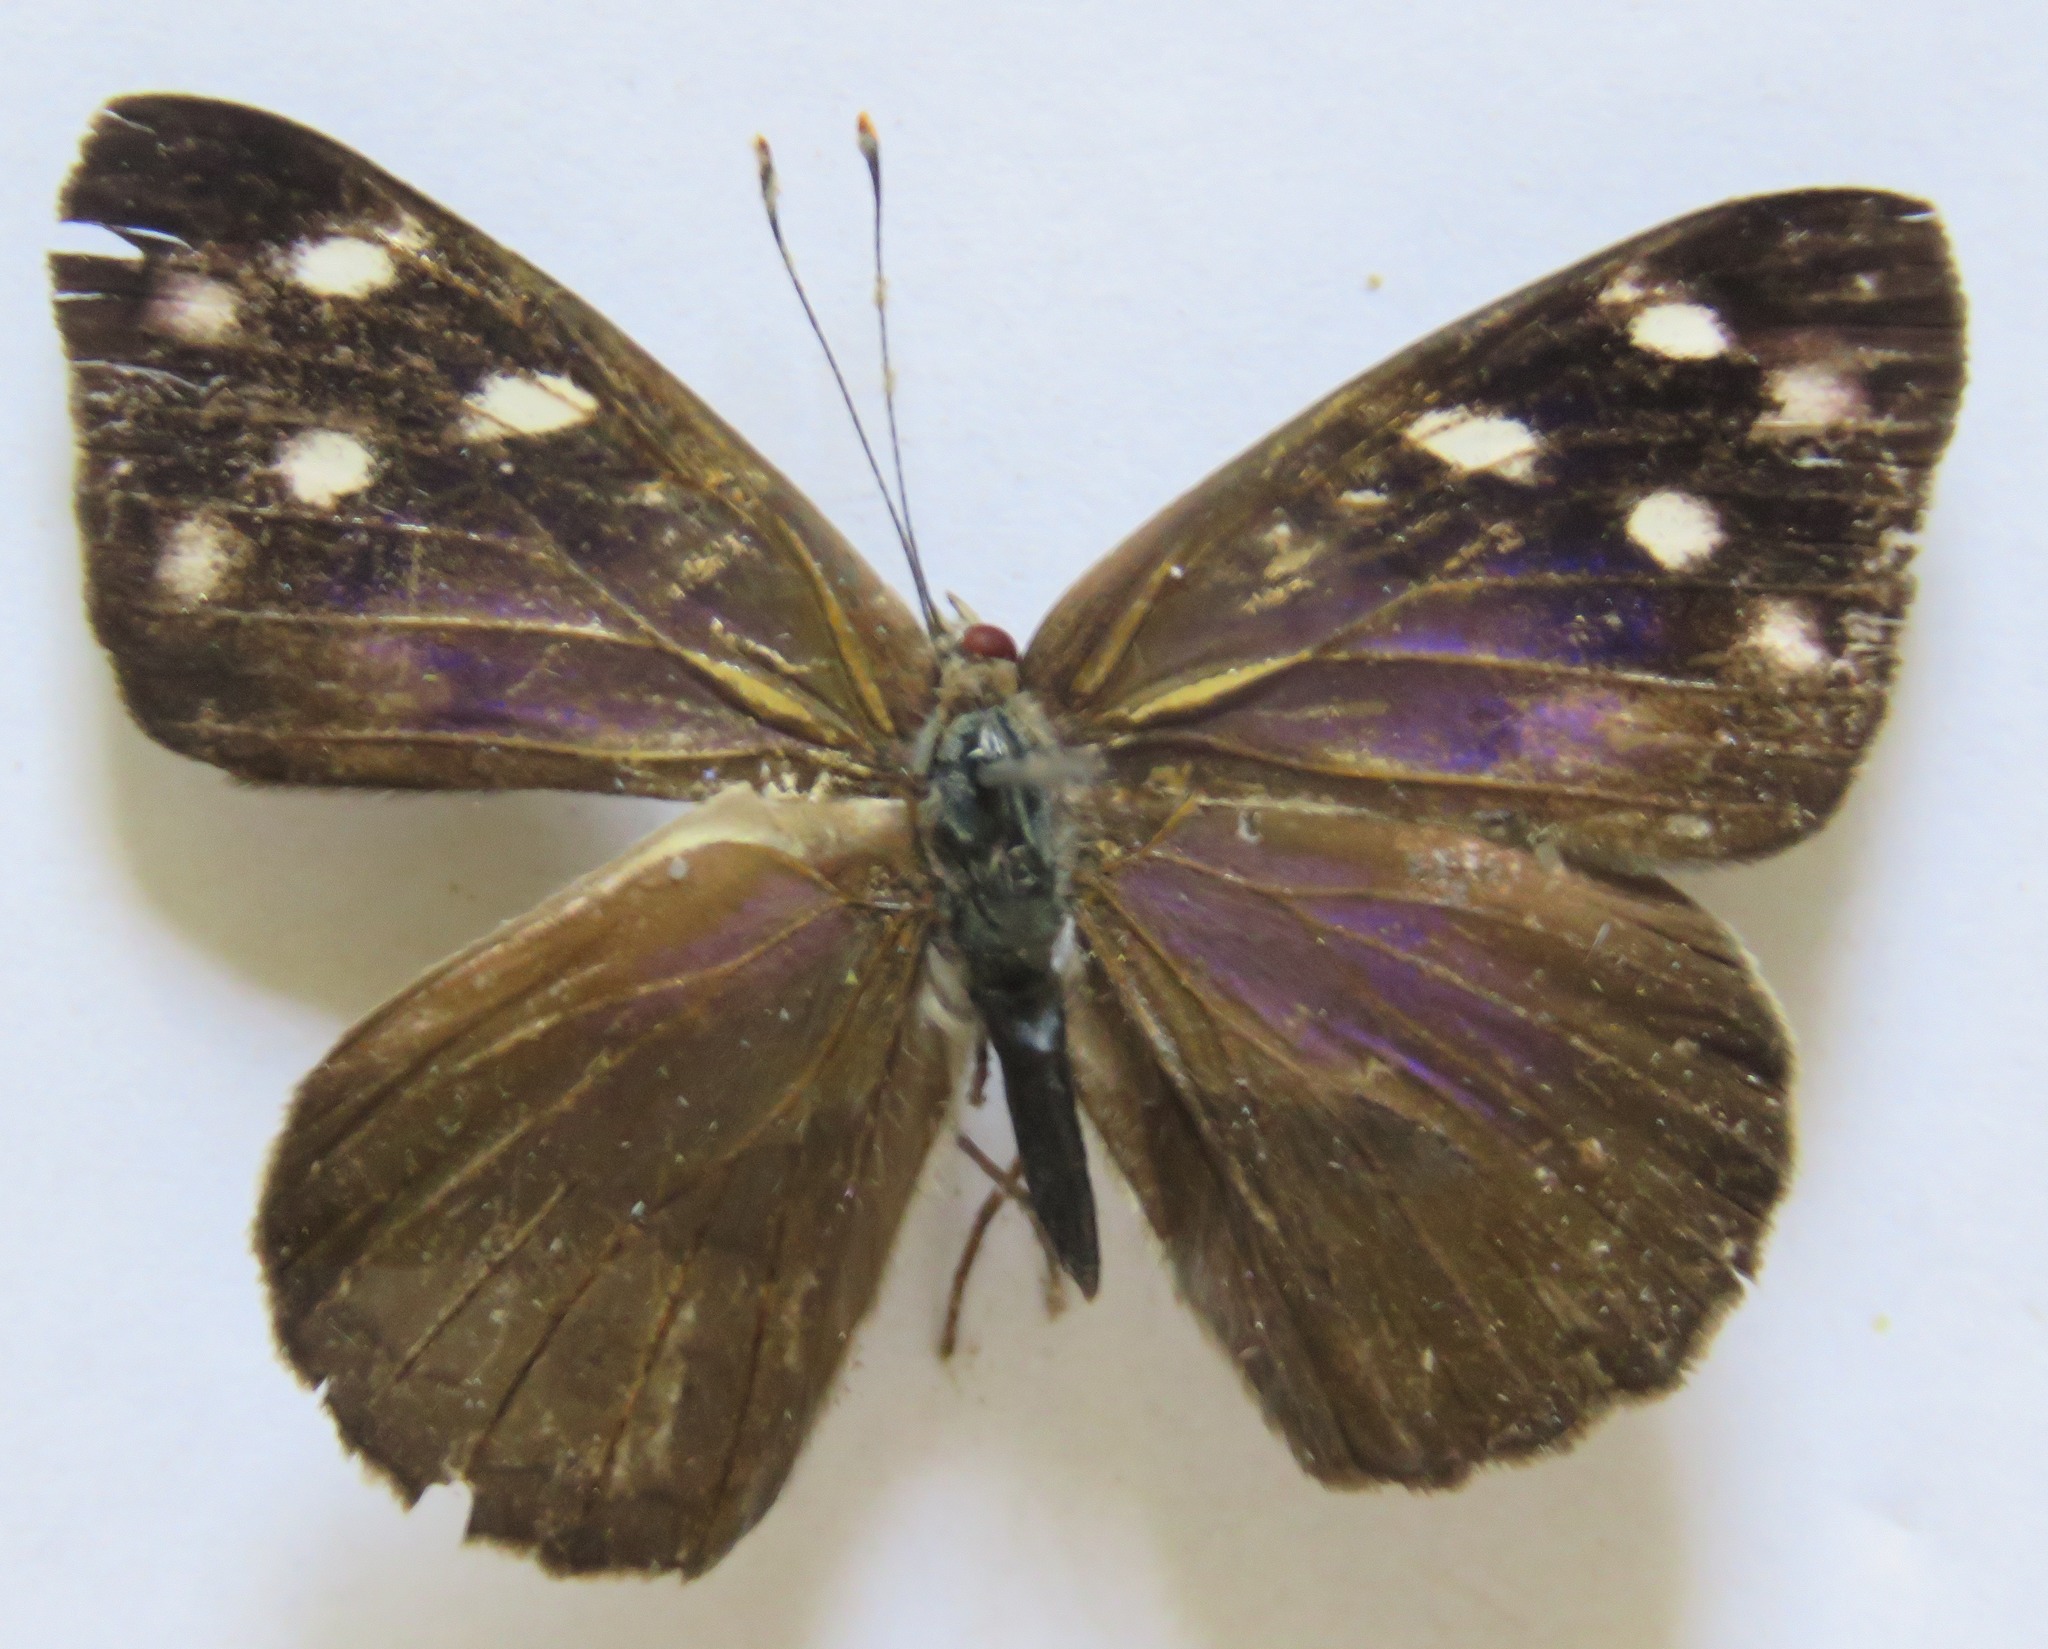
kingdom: Animalia
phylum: Arthropoda
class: Insecta
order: Lepidoptera
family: Nymphalidae
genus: Eunica
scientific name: Eunica monima
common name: Dingy purplewing
